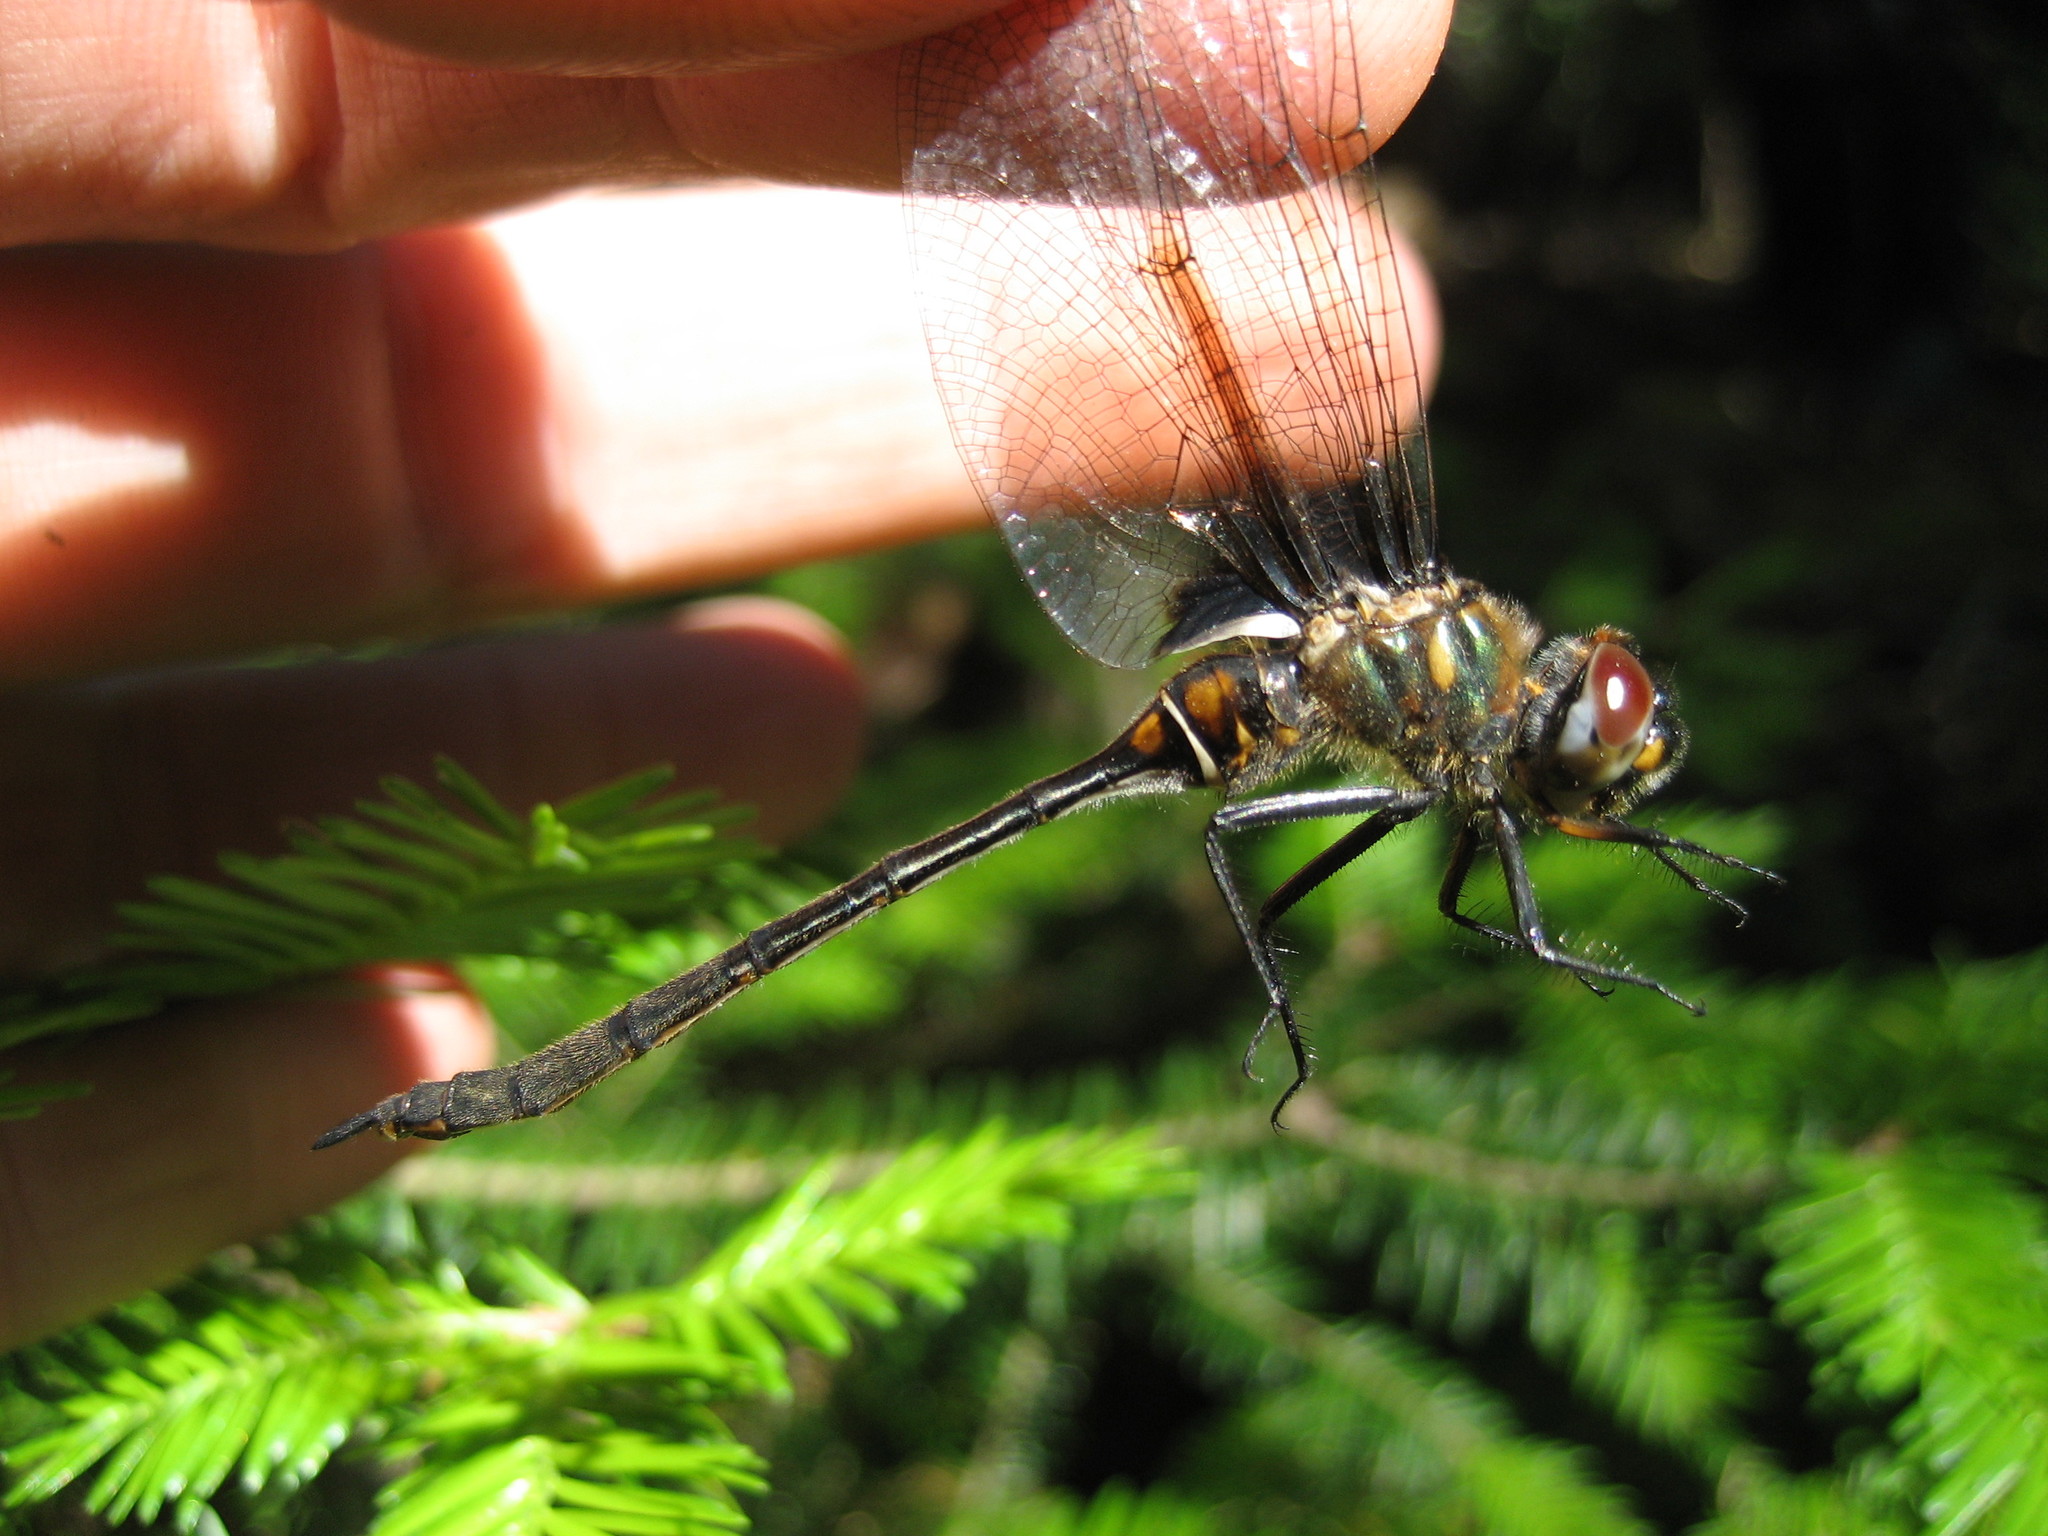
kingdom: Animalia
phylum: Arthropoda
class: Insecta
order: Odonata
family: Corduliidae
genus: Somatochlora
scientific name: Somatochlora franklini
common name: Delicate emerald
